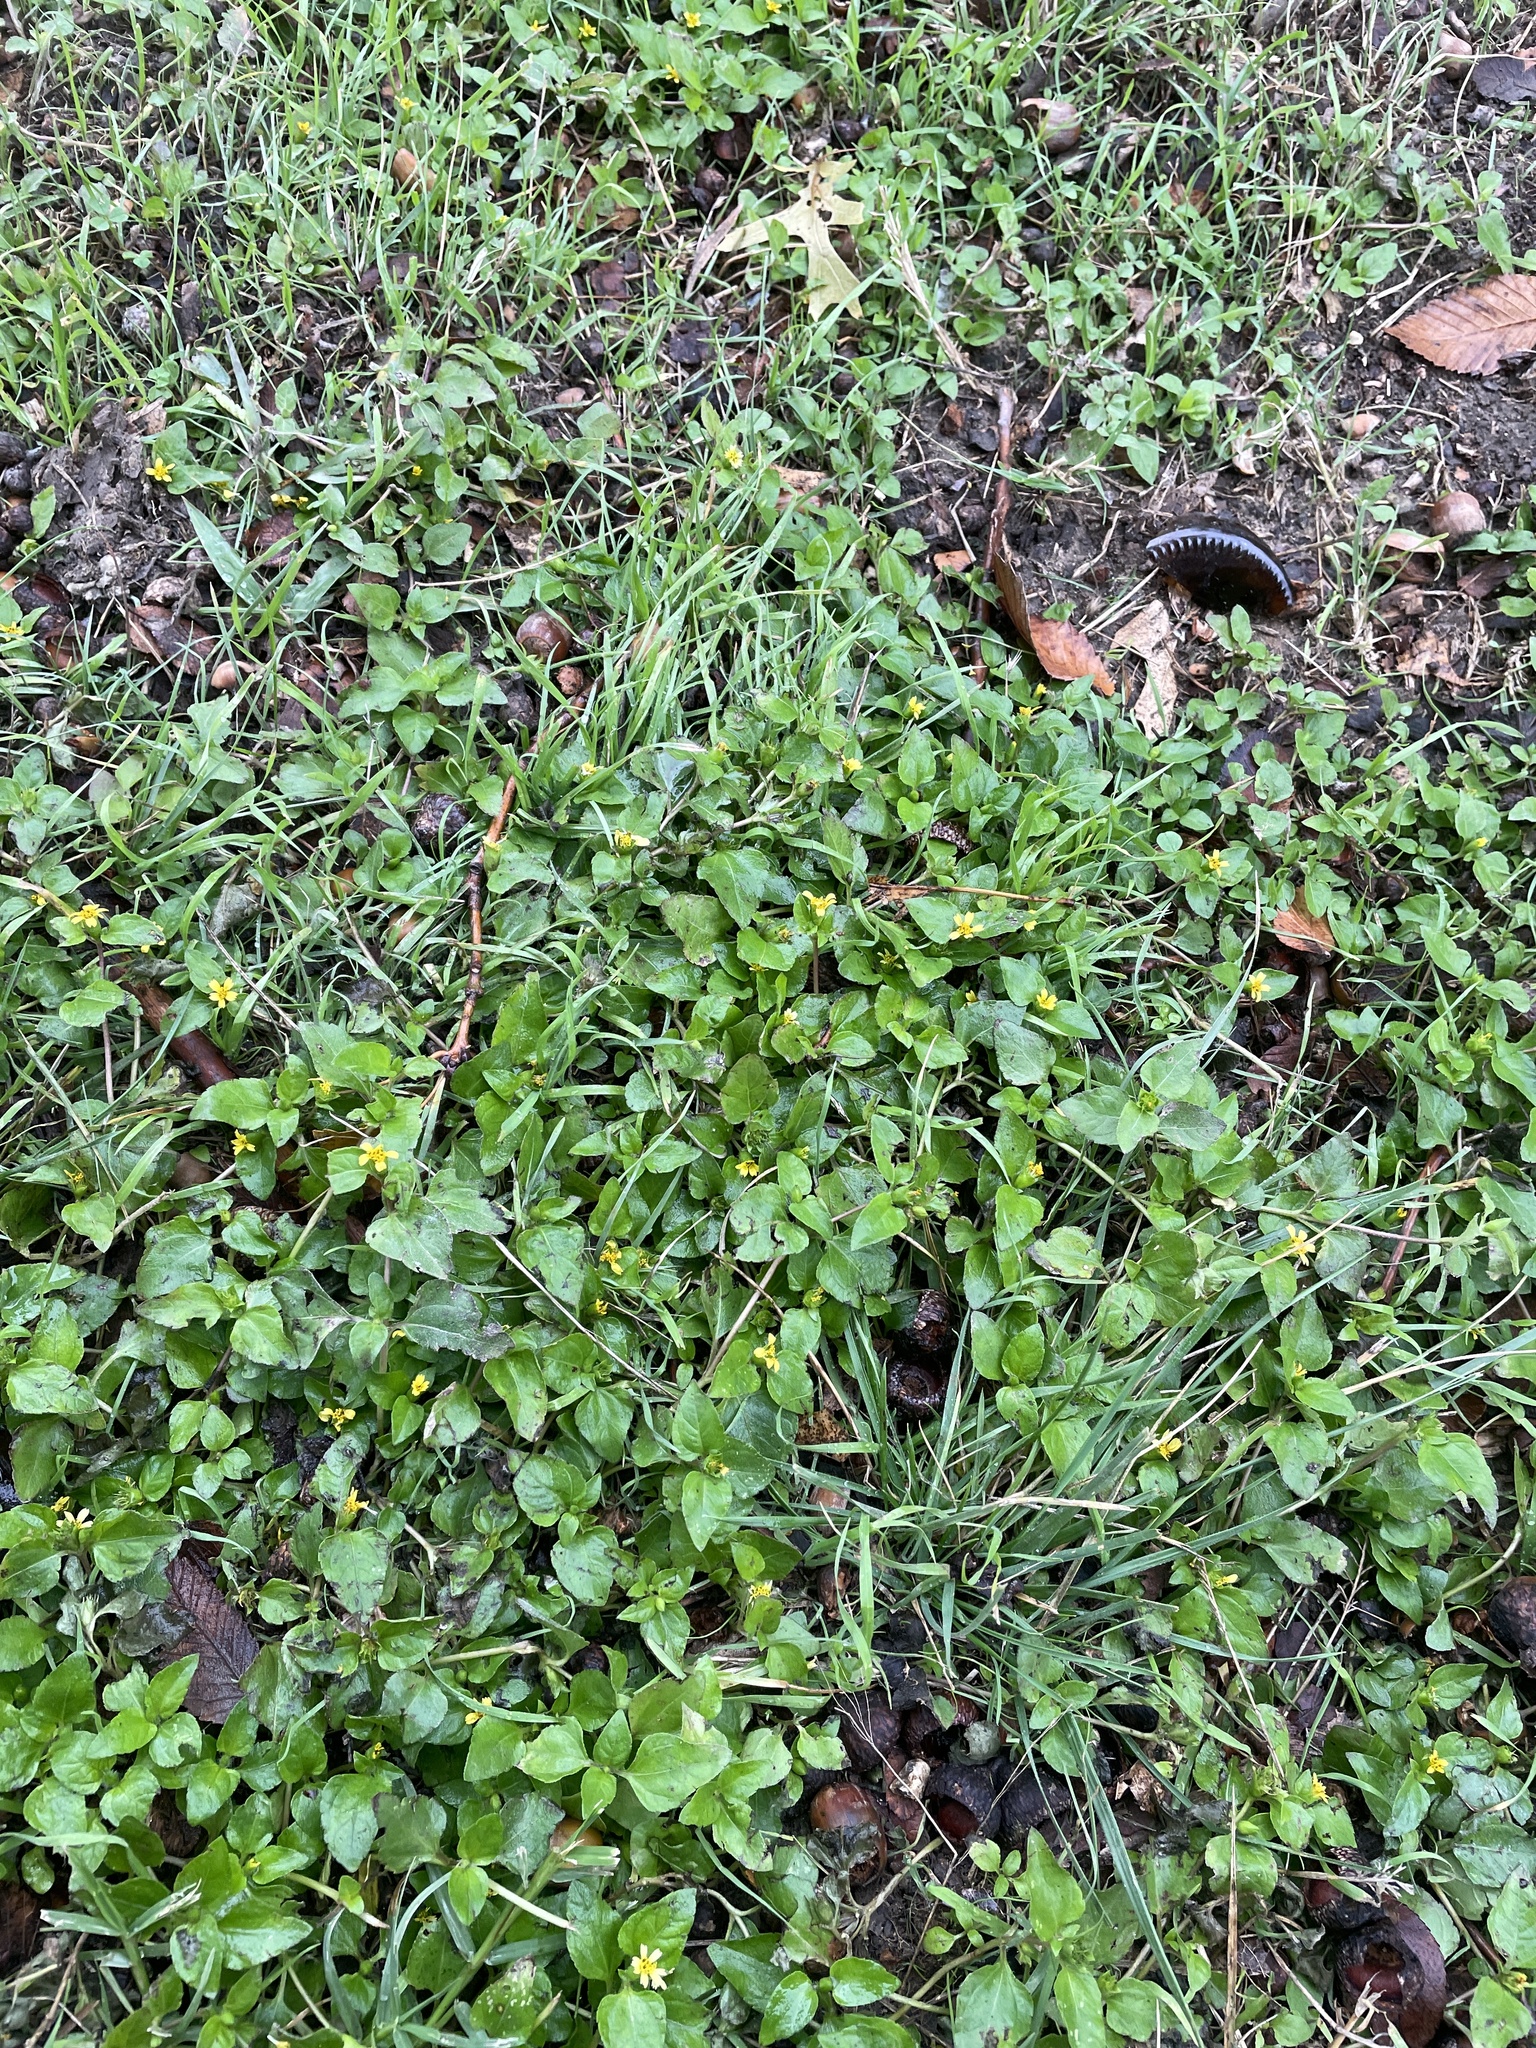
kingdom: Plantae
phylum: Tracheophyta
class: Magnoliopsida
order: Asterales
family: Asteraceae
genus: Calyptocarpus
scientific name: Calyptocarpus vialis
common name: Straggler daisy
